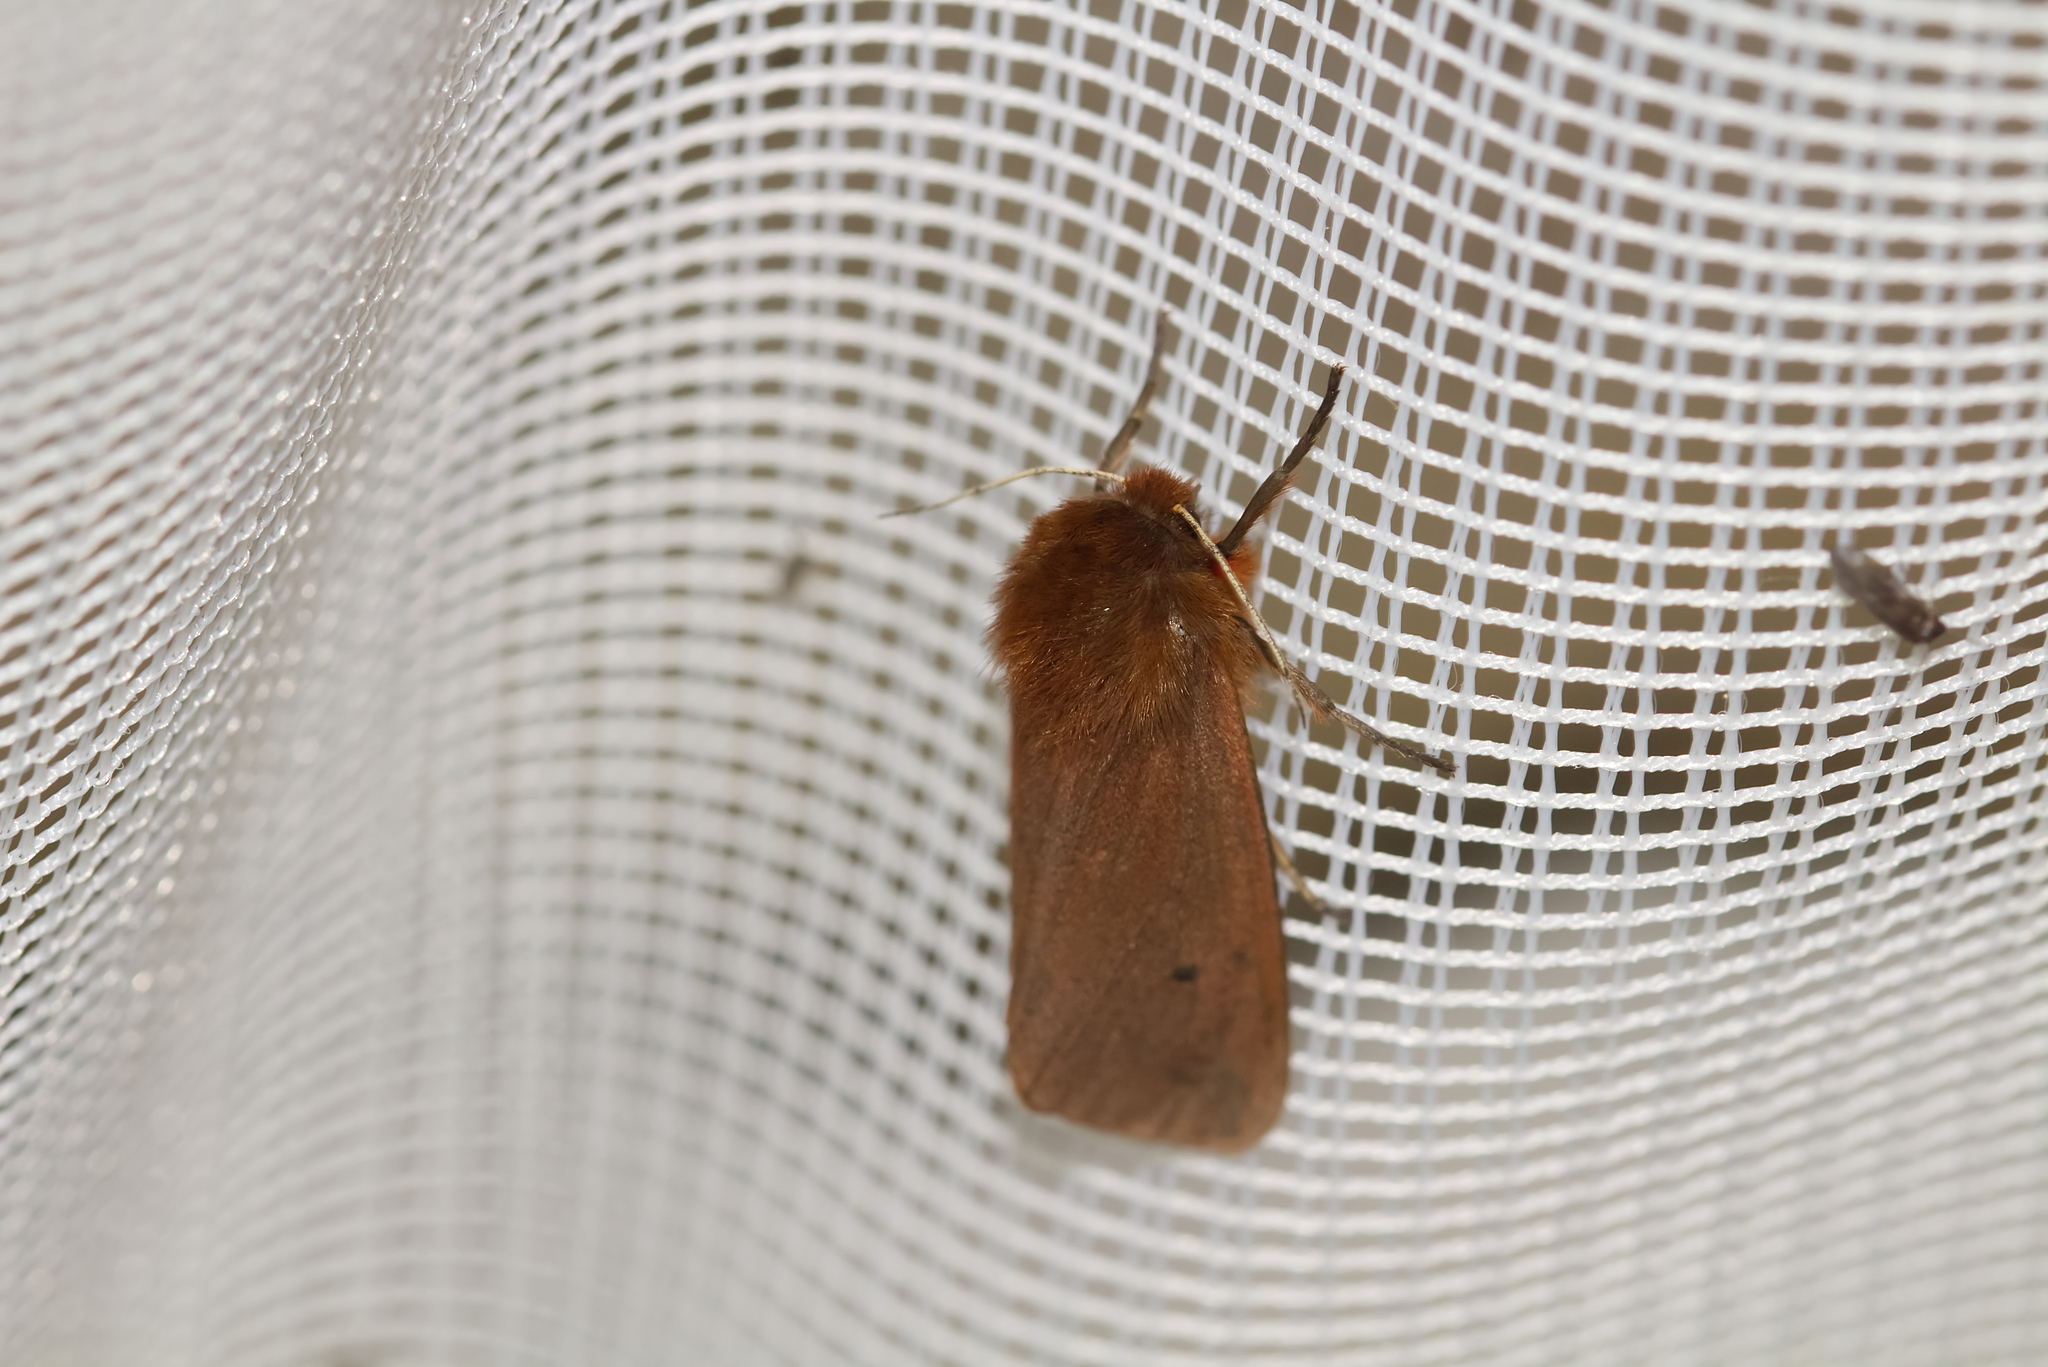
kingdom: Animalia
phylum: Arthropoda
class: Insecta
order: Lepidoptera
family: Erebidae
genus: Phragmatobia
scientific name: Phragmatobia fuliginosa
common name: Ruby tiger
